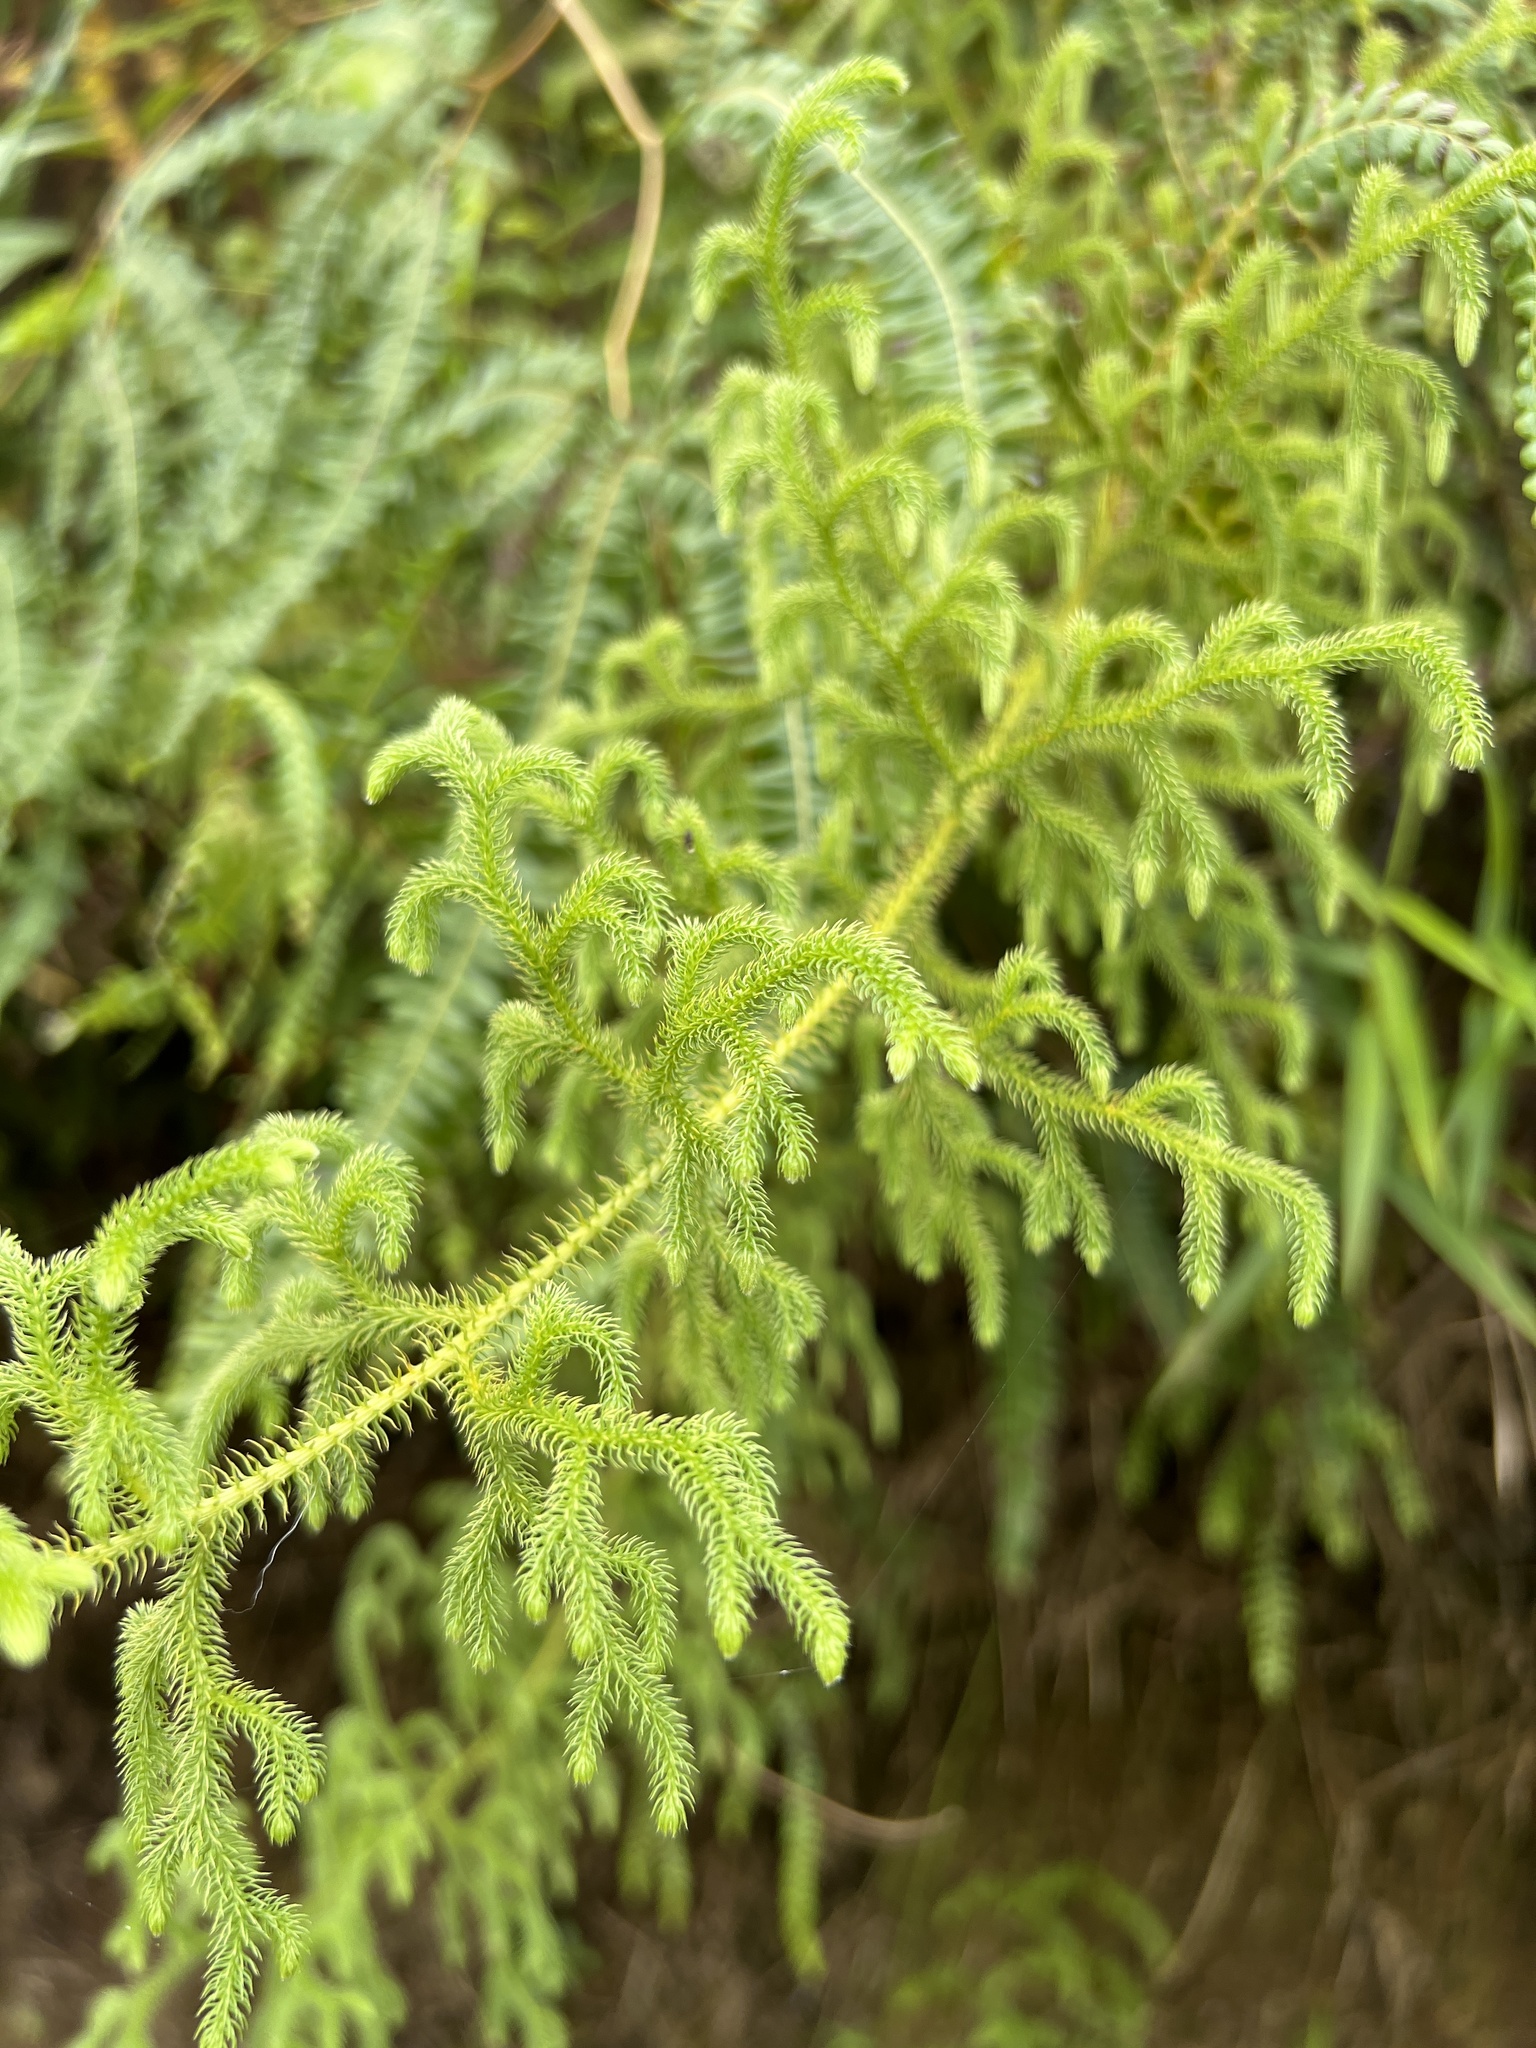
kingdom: Plantae
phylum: Tracheophyta
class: Lycopodiopsida
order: Lycopodiales
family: Lycopodiaceae
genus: Palhinhaea
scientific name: Palhinhaea cernua
